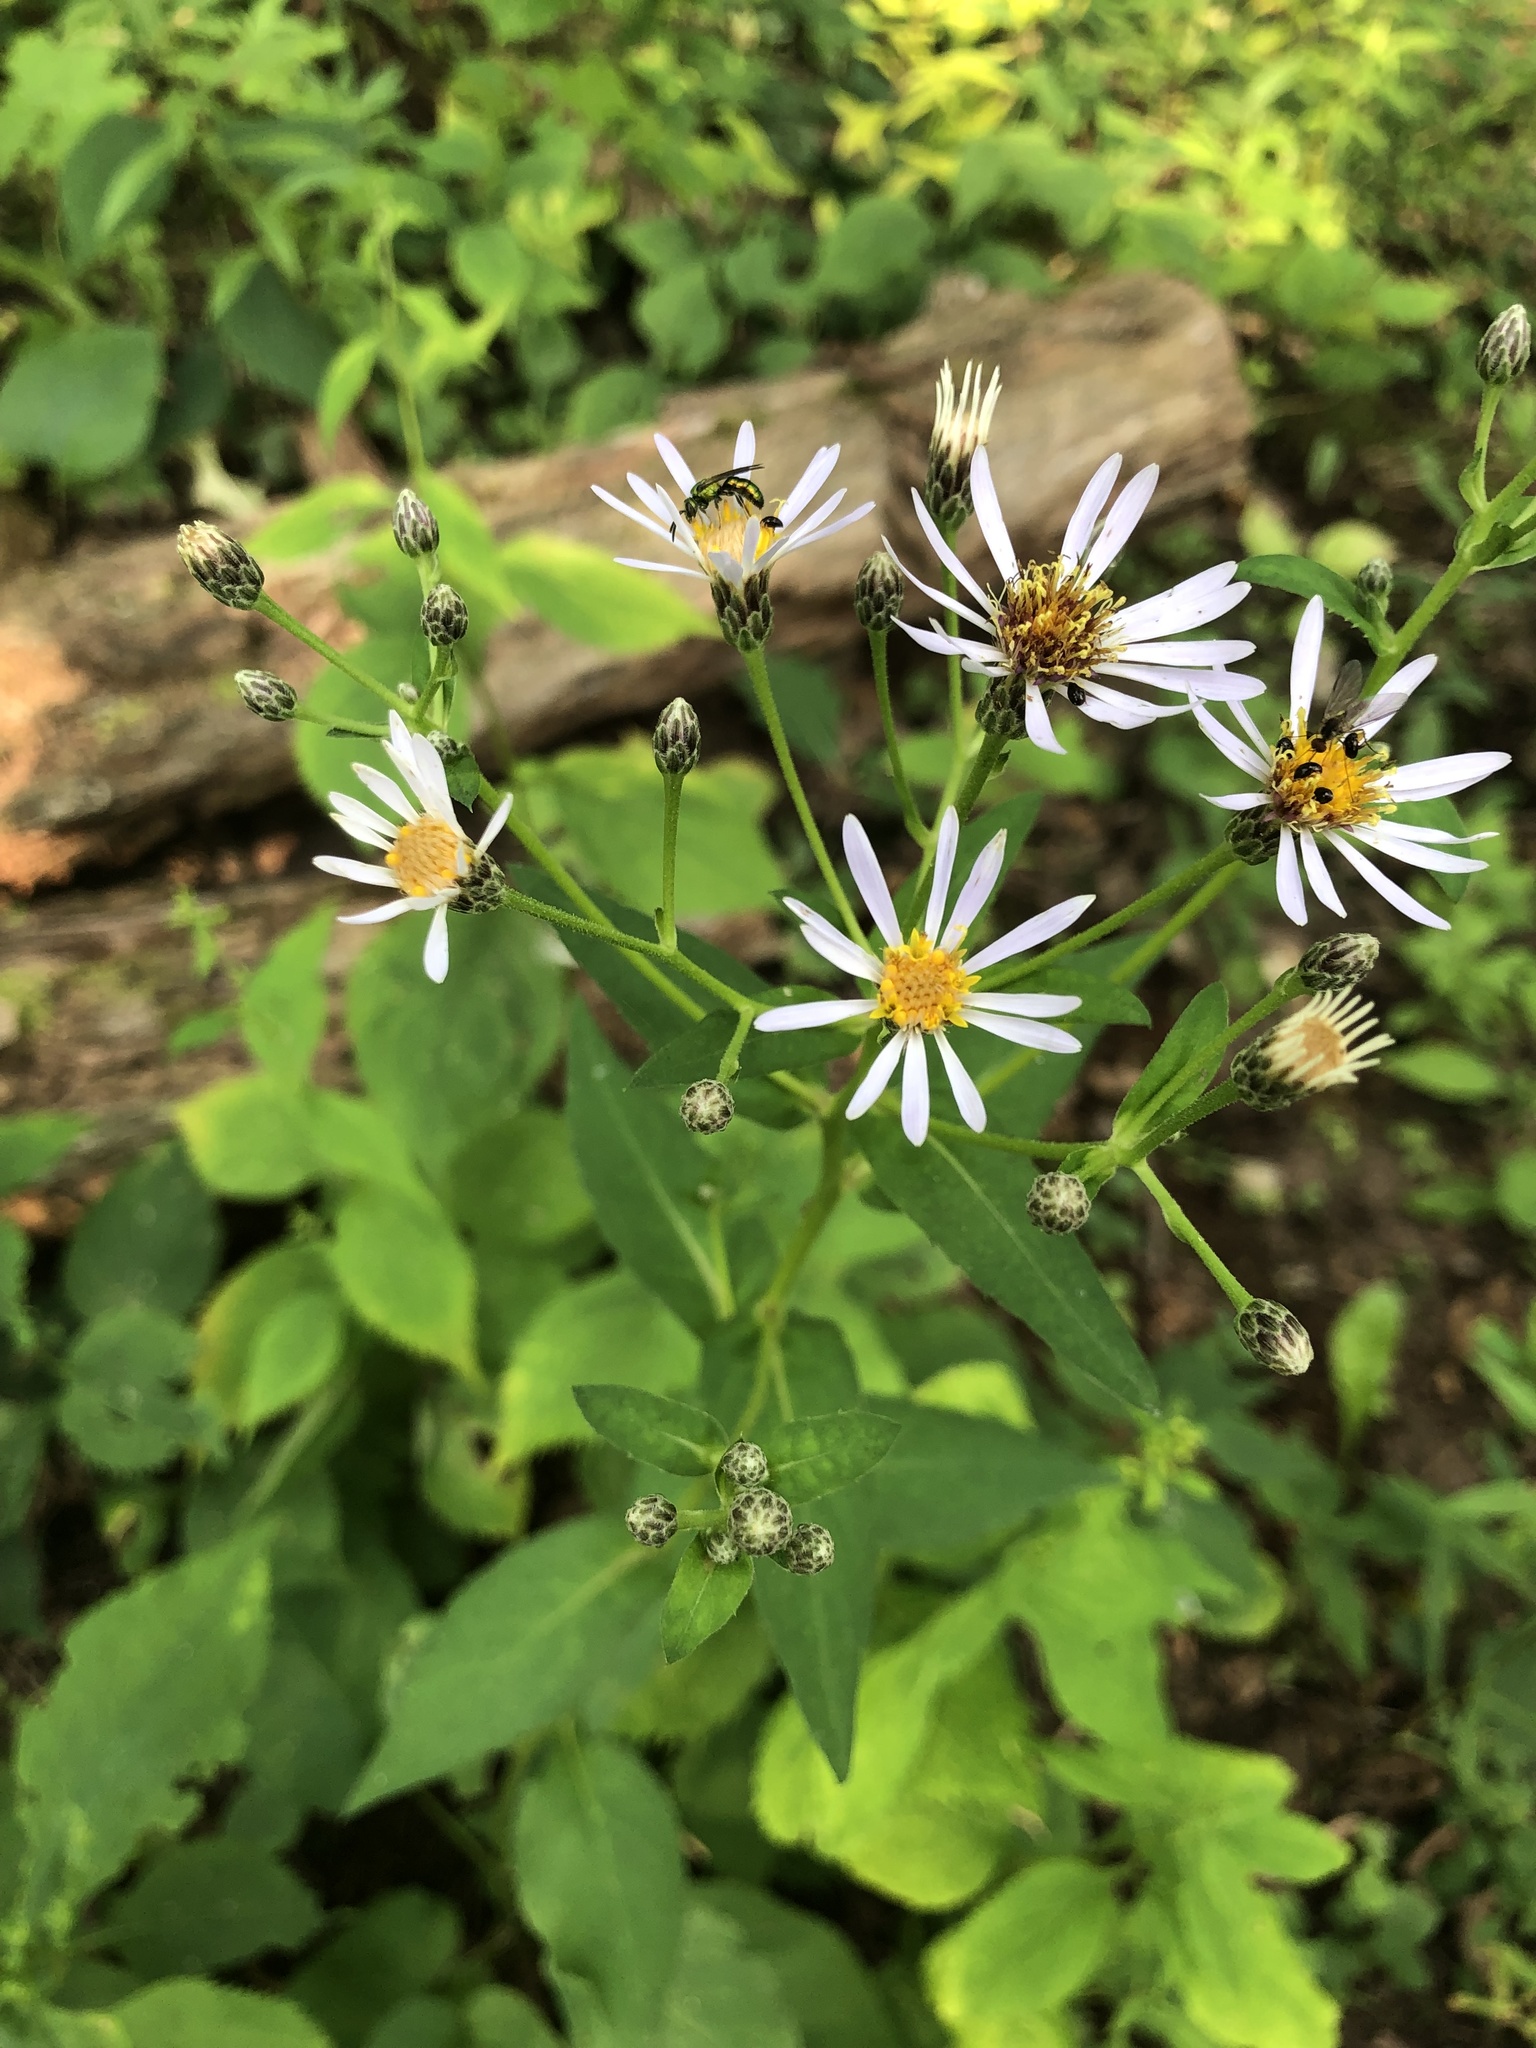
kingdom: Plantae
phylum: Tracheophyta
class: Magnoliopsida
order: Asterales
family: Asteraceae
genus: Eurybia
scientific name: Eurybia macrophylla
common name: Big-leaved aster
